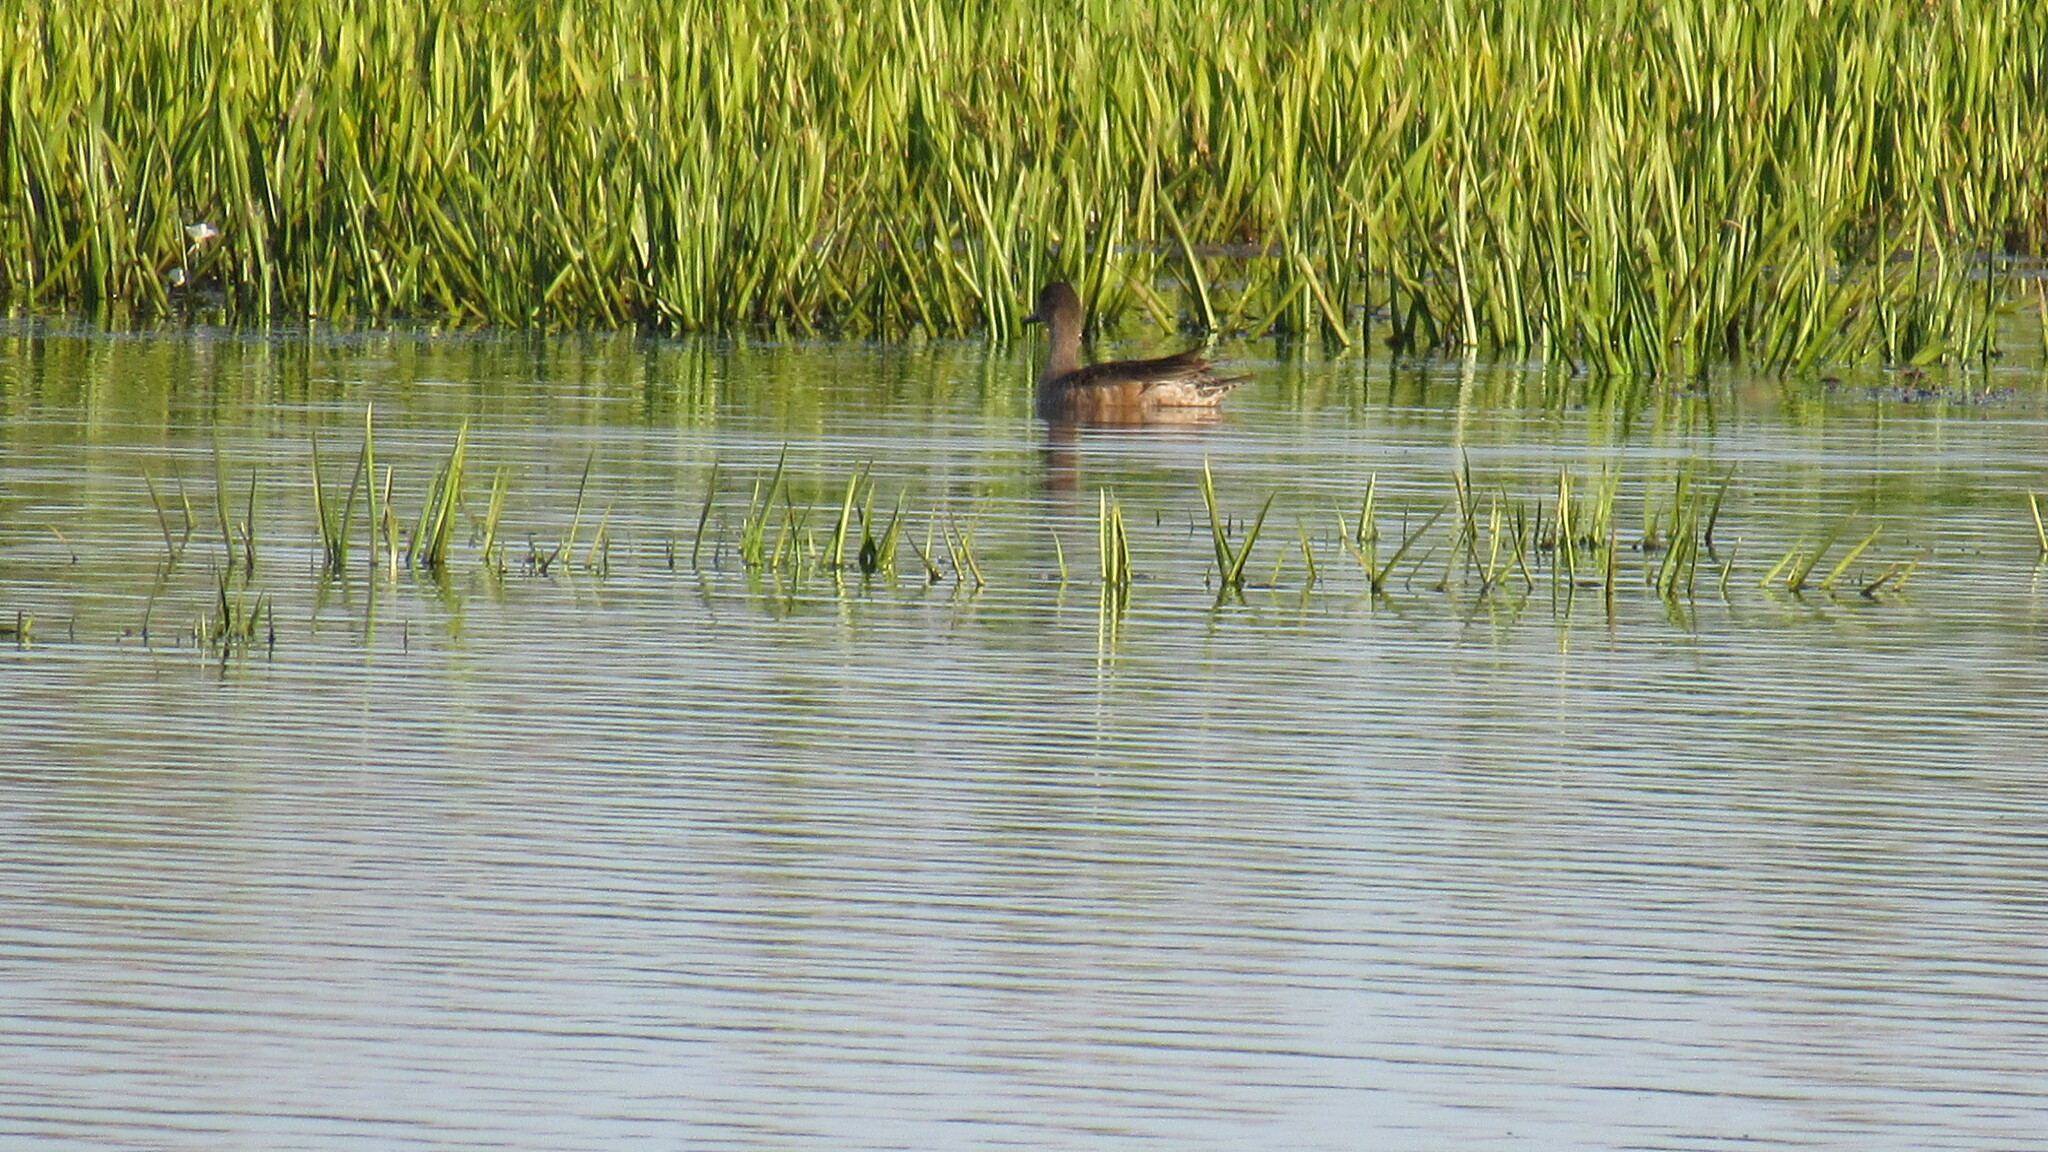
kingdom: Animalia
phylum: Chordata
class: Aves
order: Anseriformes
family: Anatidae
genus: Mareca
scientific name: Mareca penelope
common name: Eurasian wigeon
